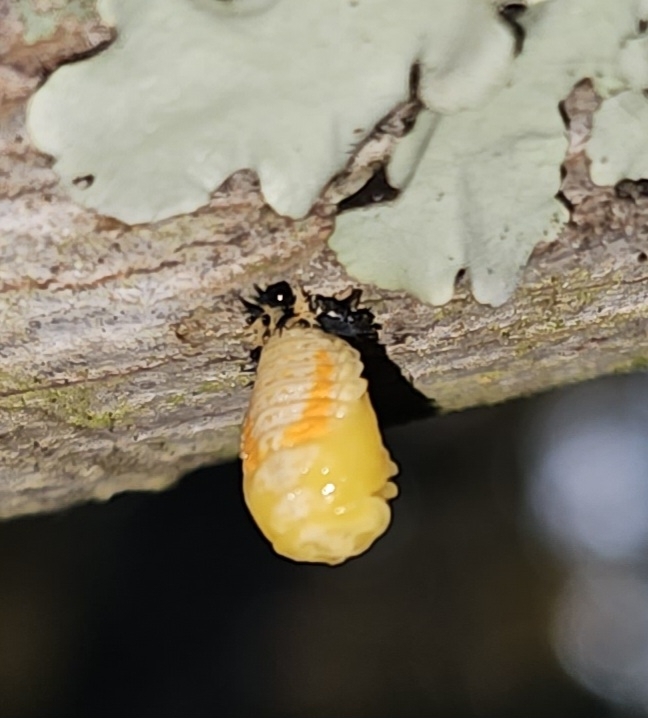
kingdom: Animalia
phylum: Arthropoda
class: Insecta
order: Coleoptera
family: Coccinellidae
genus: Harmonia
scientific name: Harmonia axyridis
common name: Harlequin ladybird
